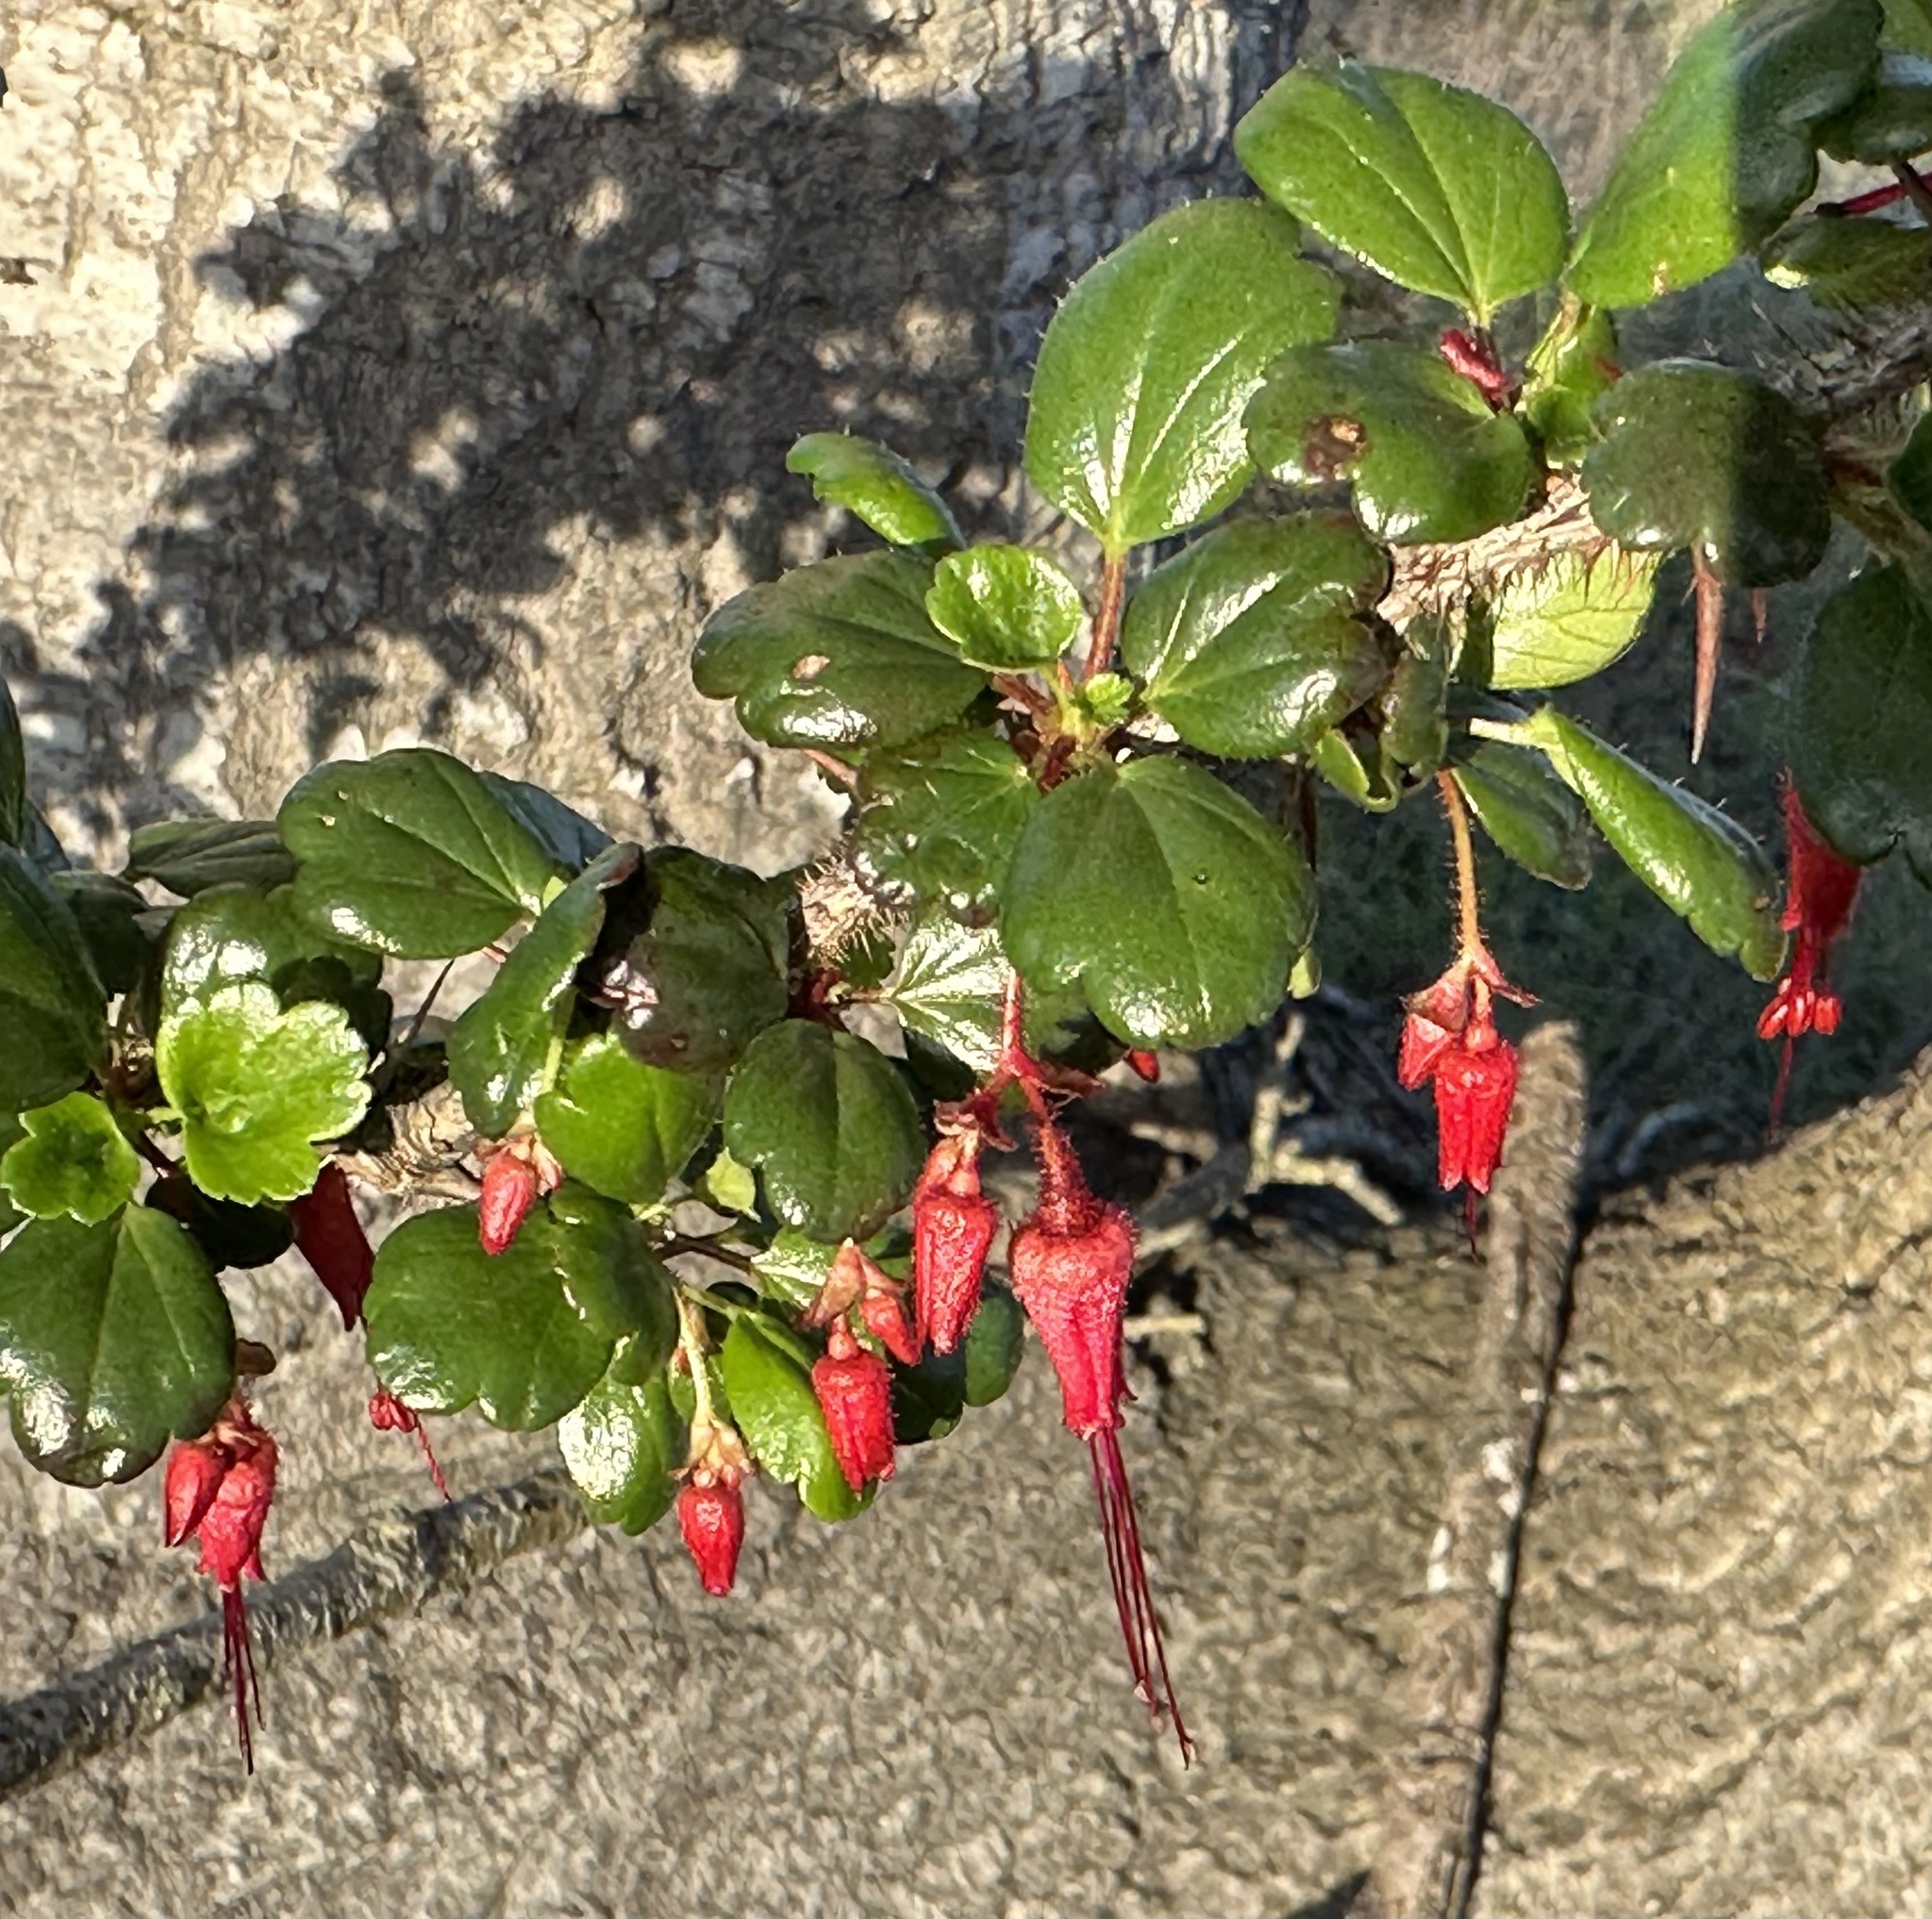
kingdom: Plantae
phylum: Tracheophyta
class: Magnoliopsida
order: Saxifragales
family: Grossulariaceae
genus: Ribes
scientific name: Ribes speciosum
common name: Fuchsia-flower gooseberry
